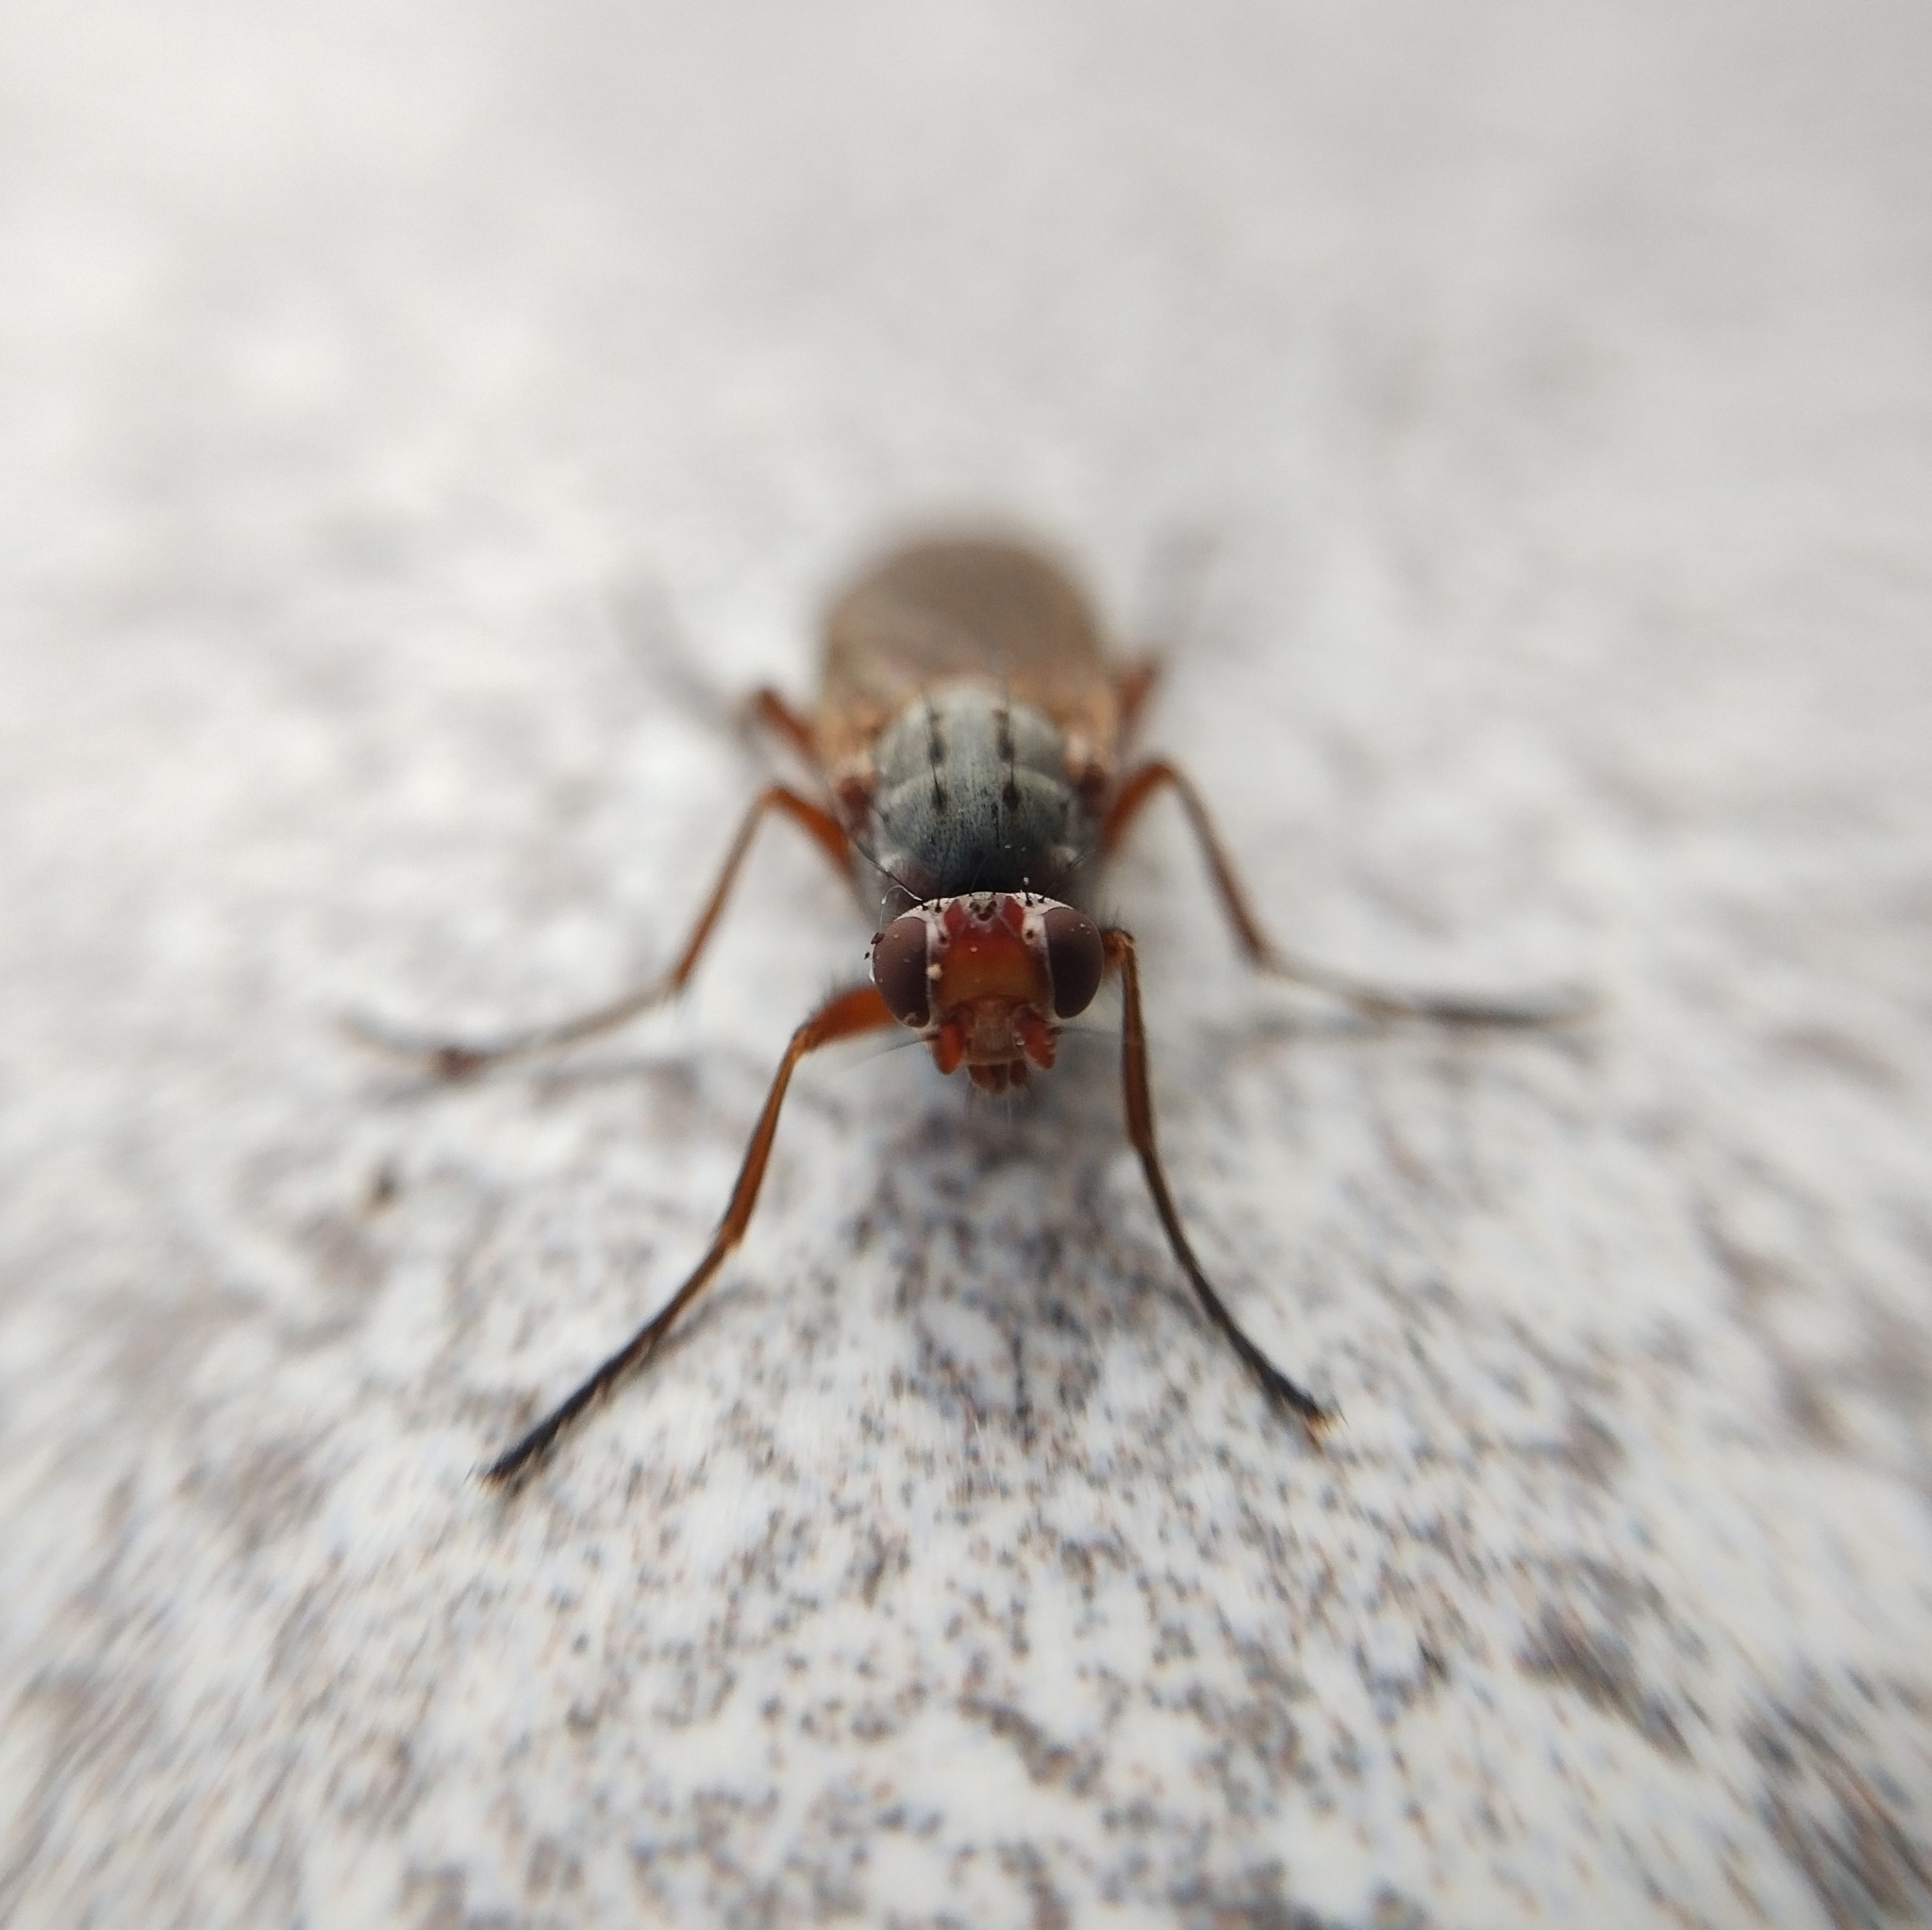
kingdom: Animalia
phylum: Arthropoda
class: Insecta
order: Diptera
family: Heleomyzidae
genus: Scoliocentra
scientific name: Scoliocentra villosa
